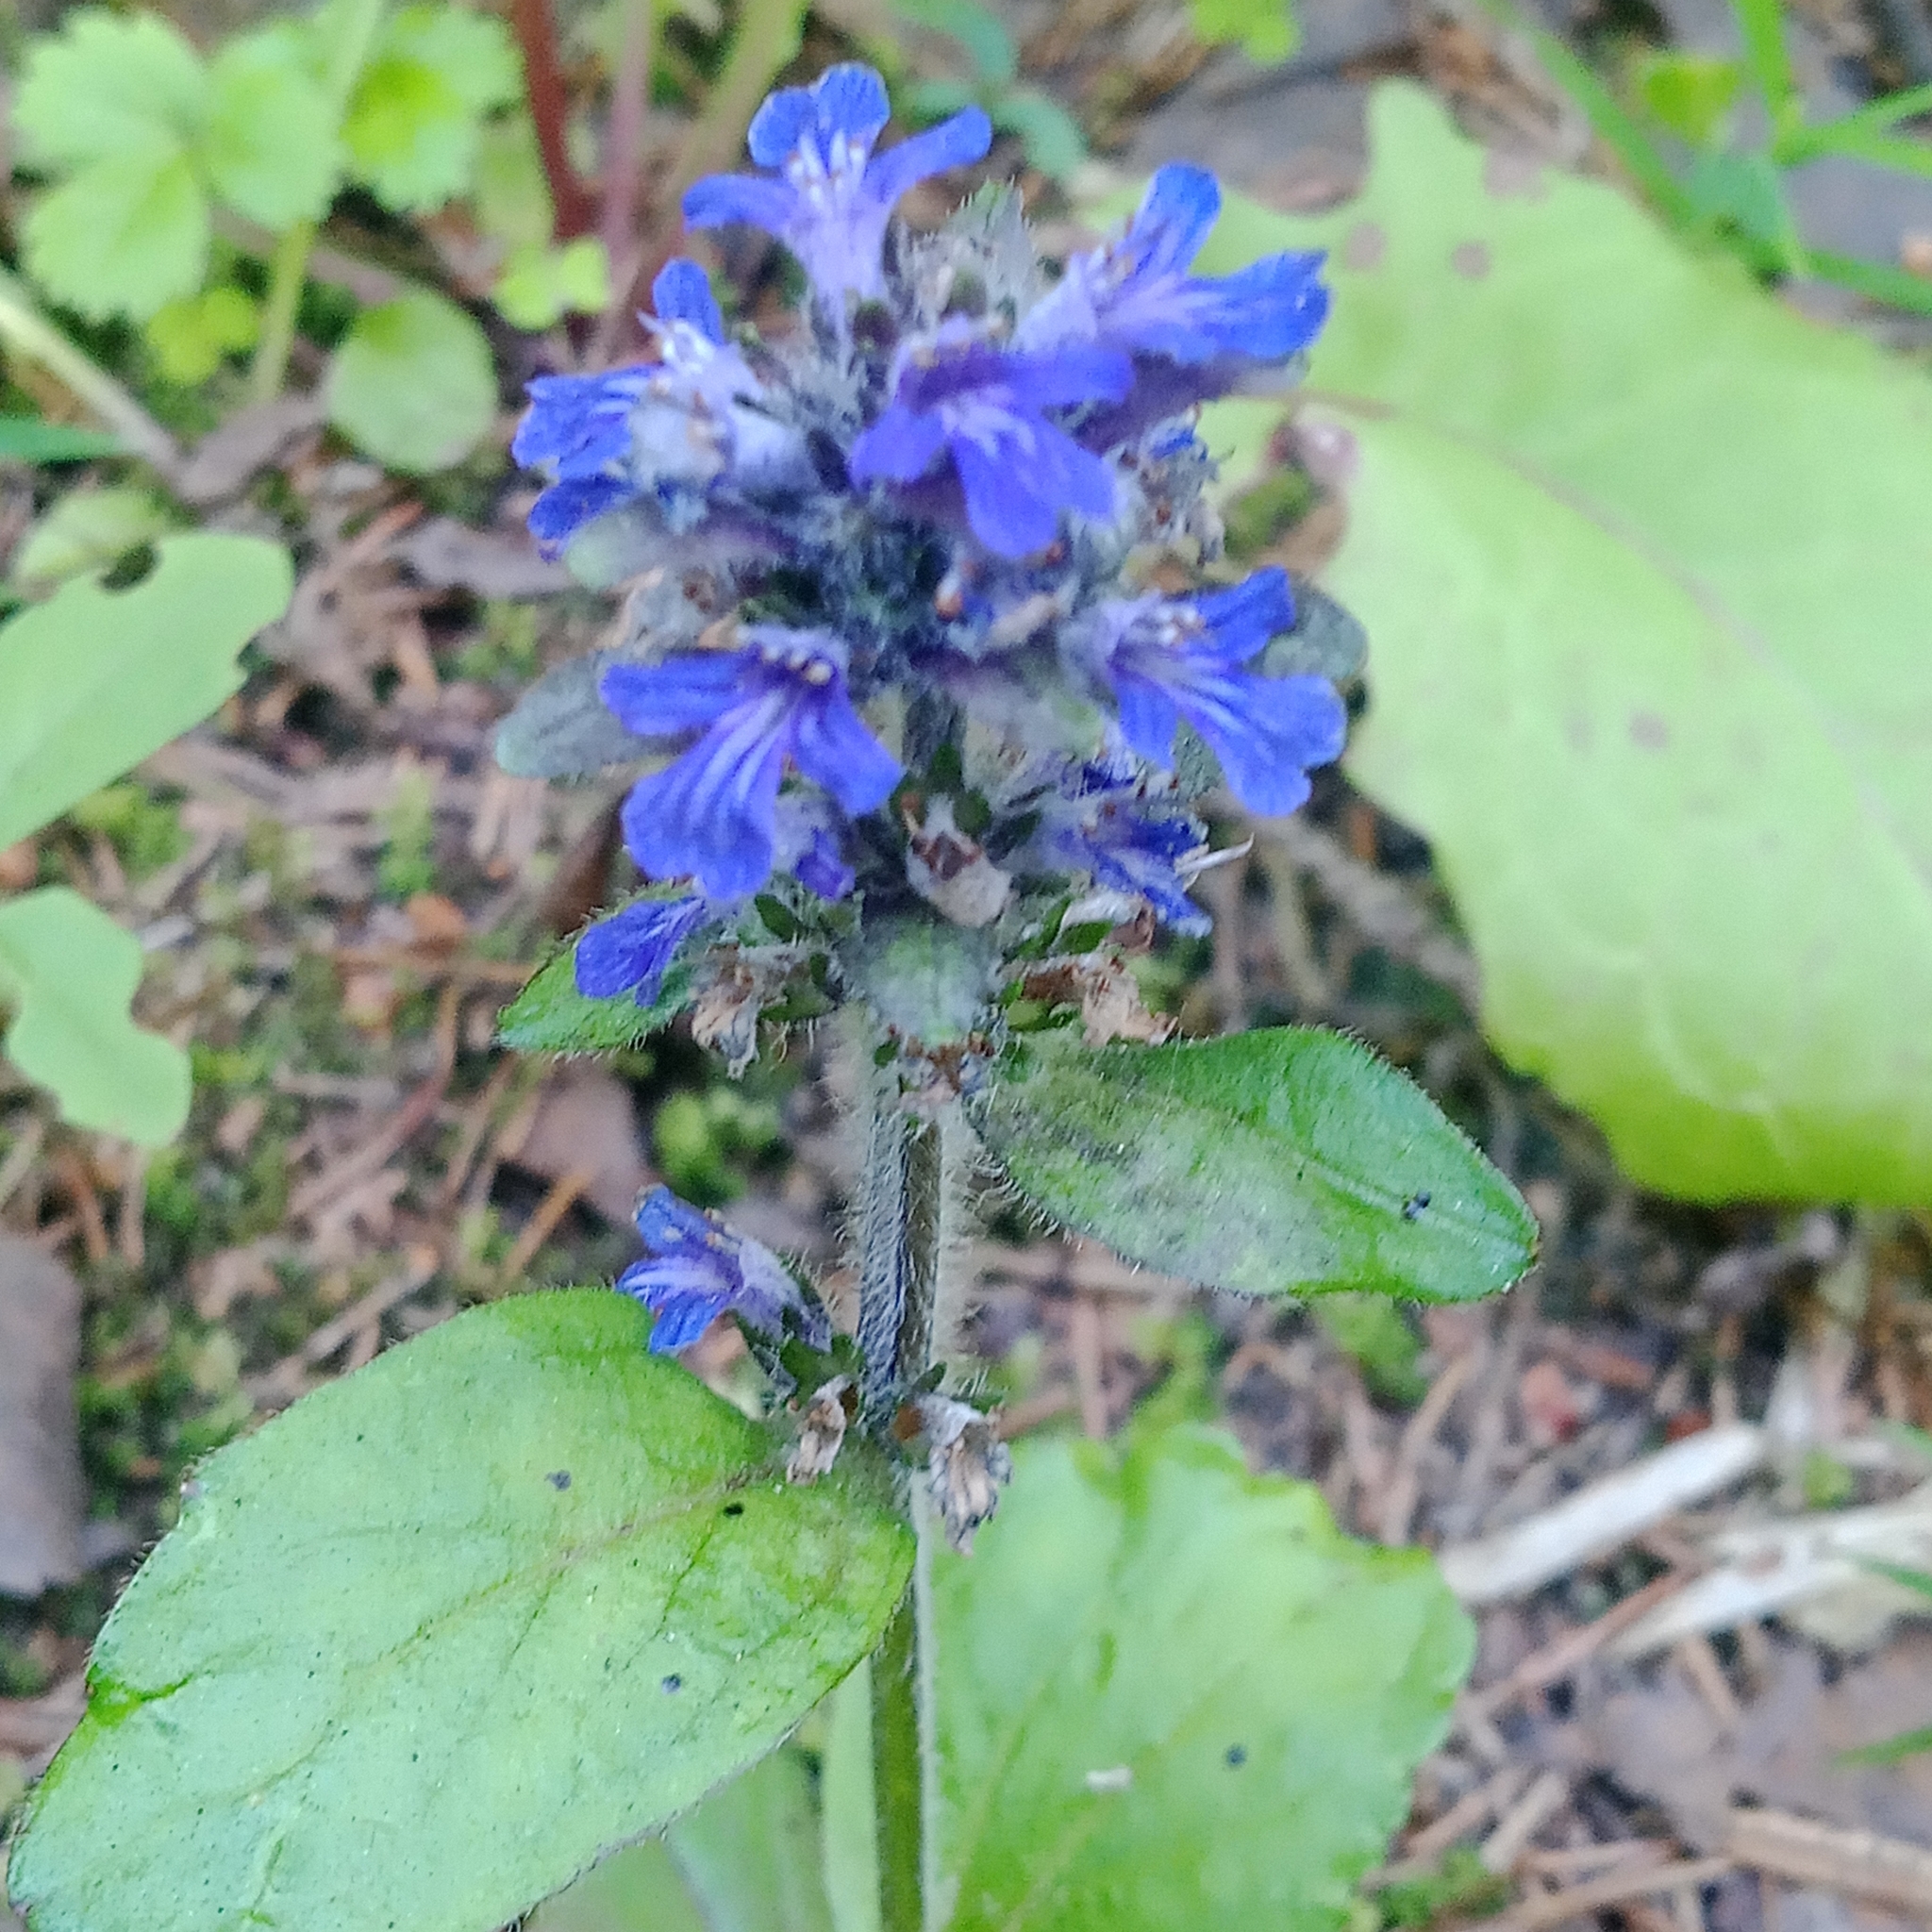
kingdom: Plantae
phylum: Tracheophyta
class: Magnoliopsida
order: Lamiales
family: Lamiaceae
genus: Ajuga
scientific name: Ajuga reptans
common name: Bugle
